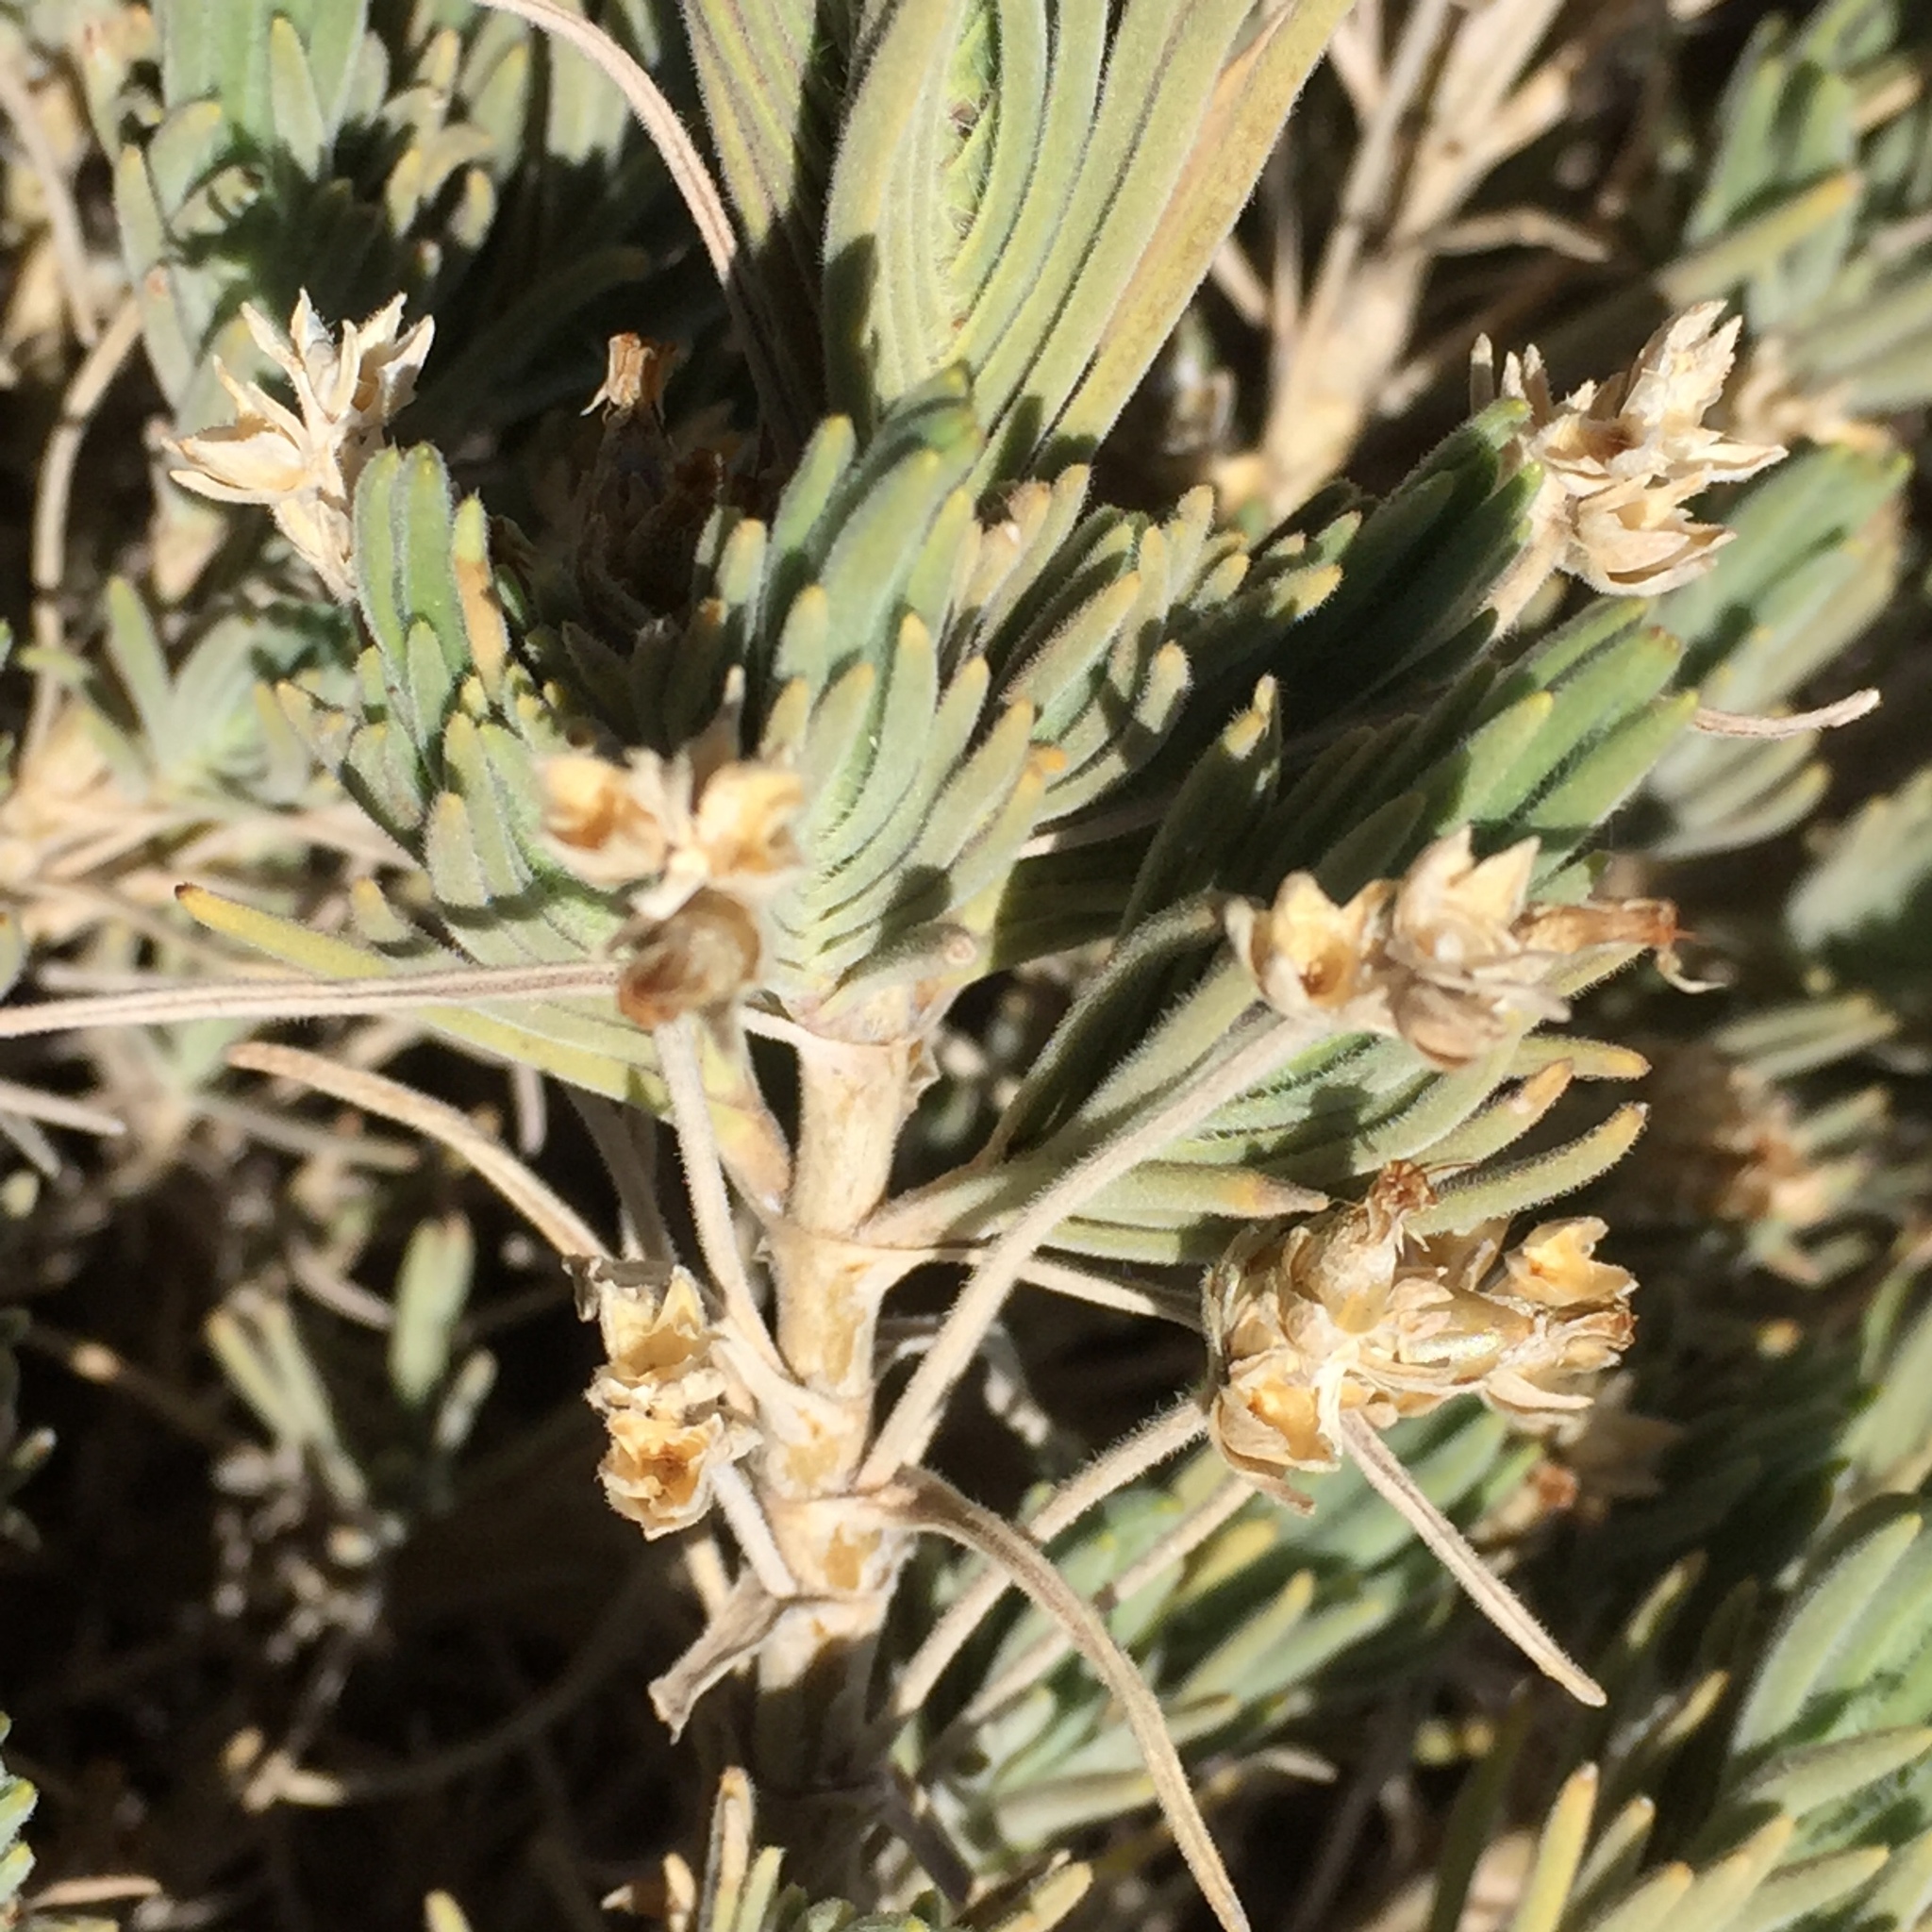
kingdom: Plantae
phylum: Tracheophyta
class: Magnoliopsida
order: Lamiales
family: Plantaginaceae
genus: Plantago
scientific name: Plantago webbii
